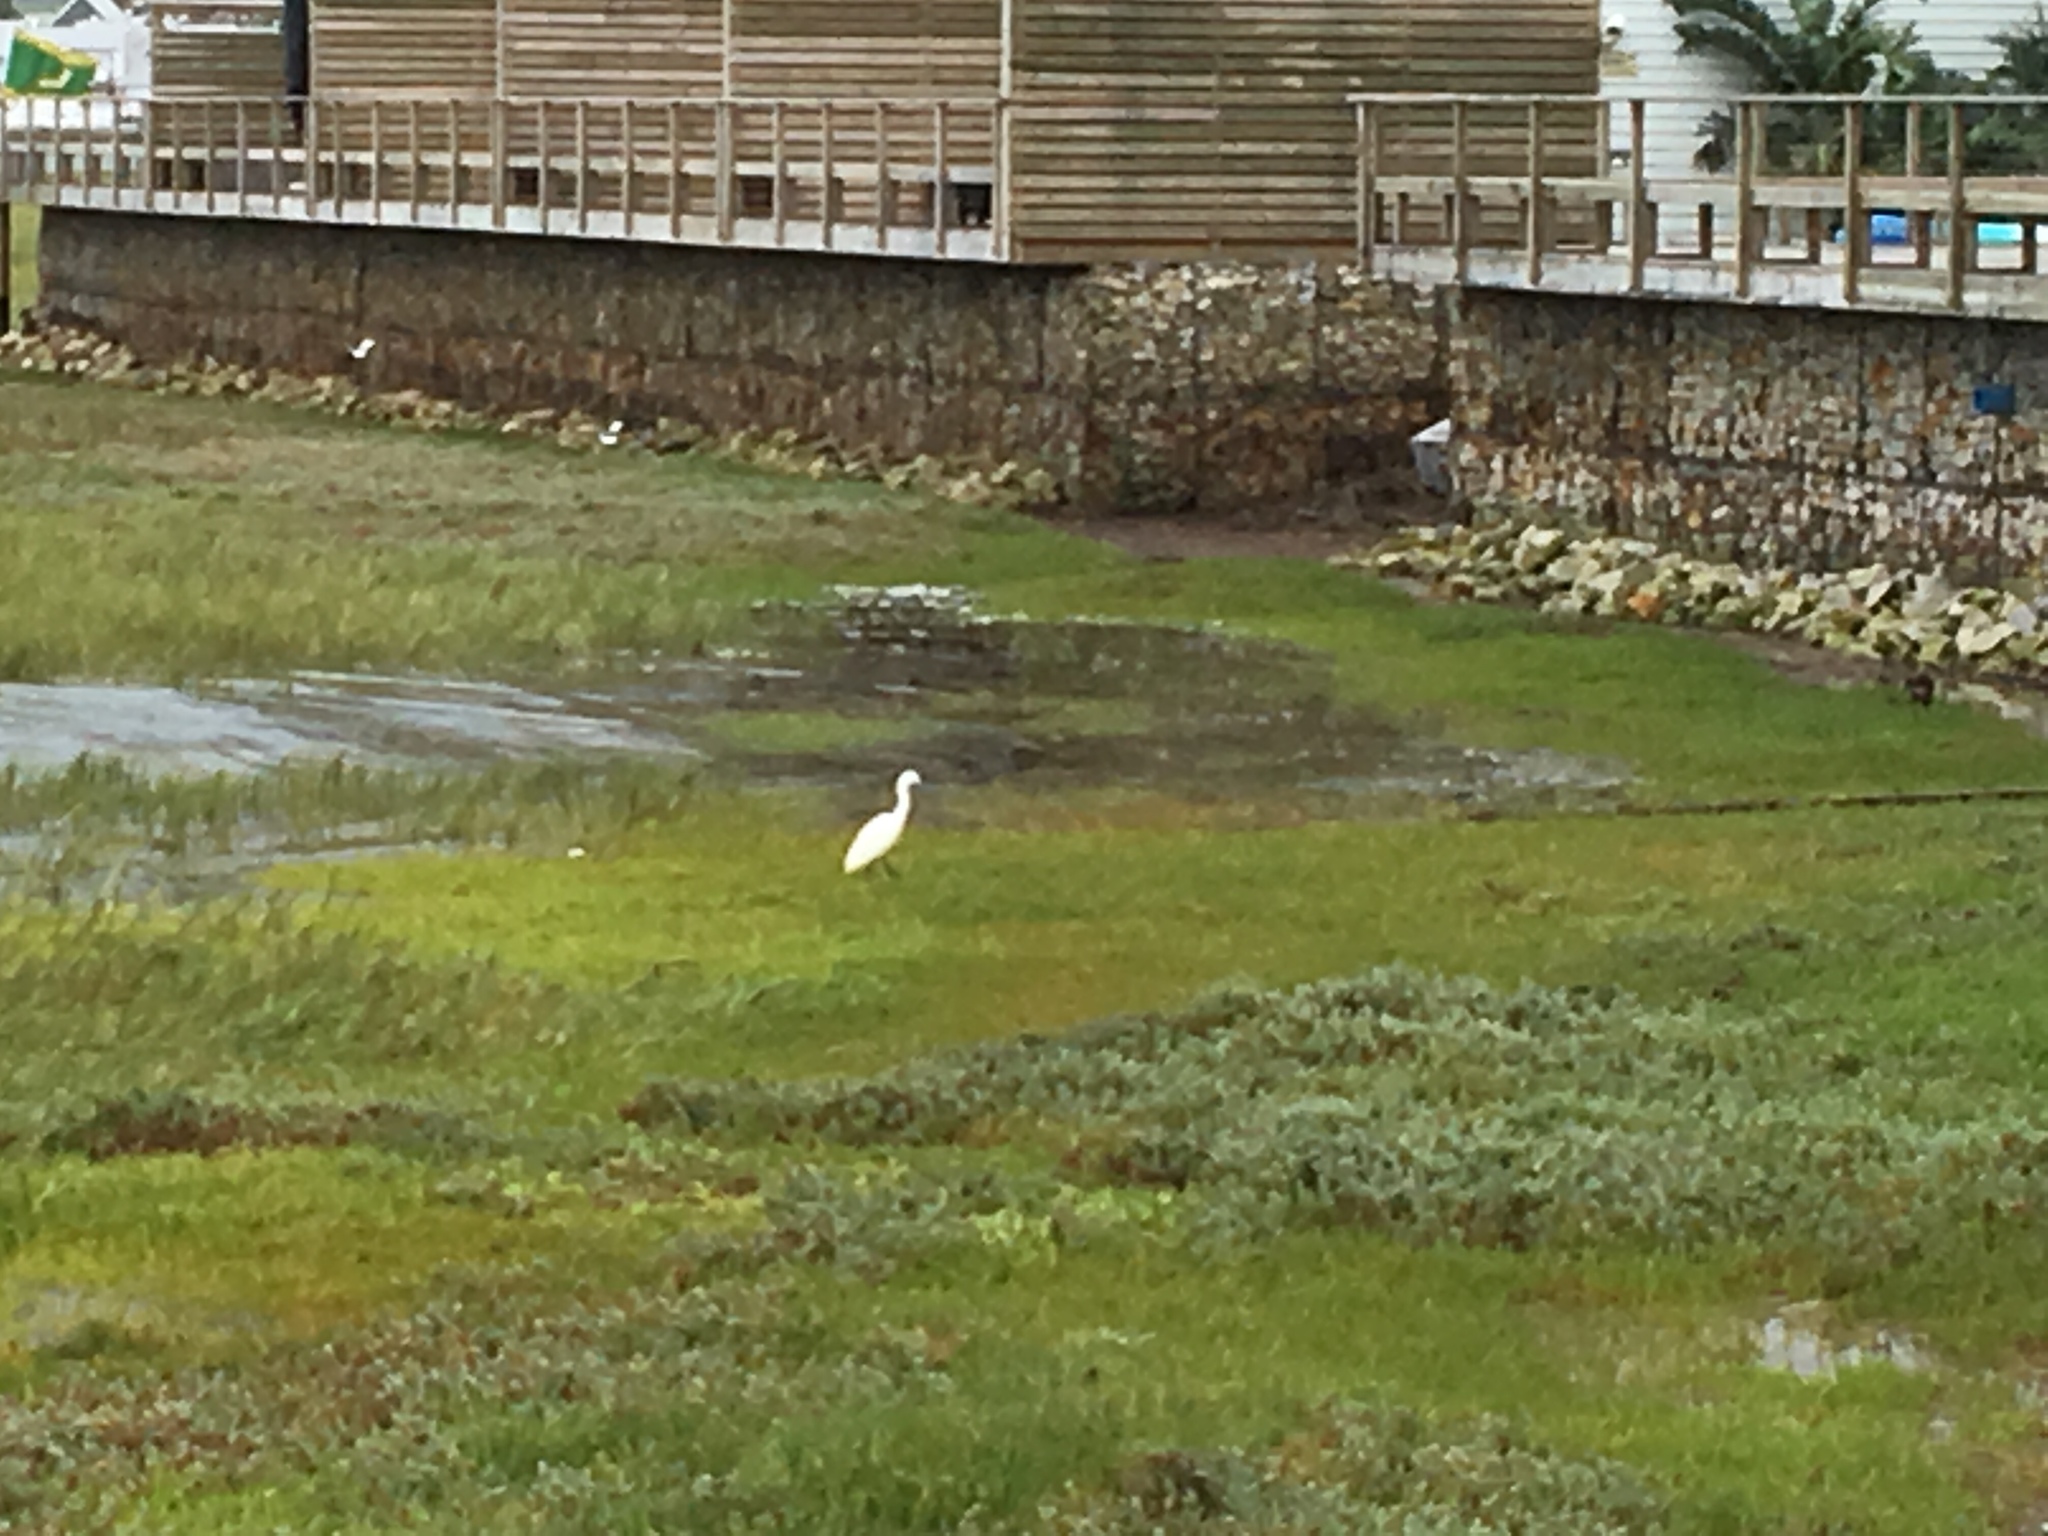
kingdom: Animalia
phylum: Chordata
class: Aves
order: Pelecaniformes
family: Ardeidae
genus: Egretta
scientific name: Egretta garzetta
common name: Little egret
